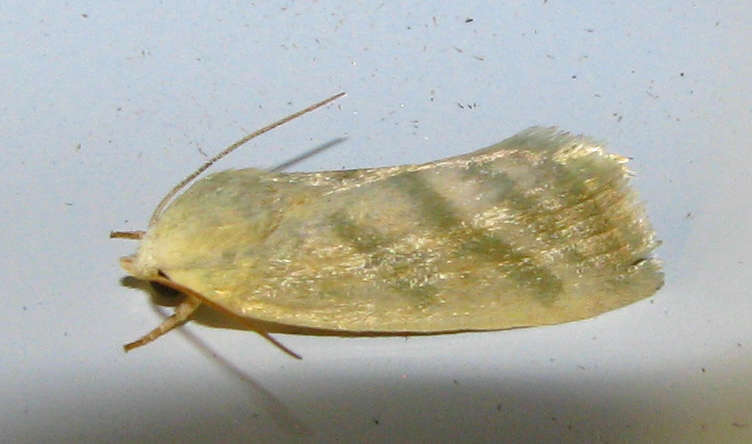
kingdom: Animalia
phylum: Arthropoda
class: Insecta
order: Lepidoptera
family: Nolidae
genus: Earias
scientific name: Earias paralella
